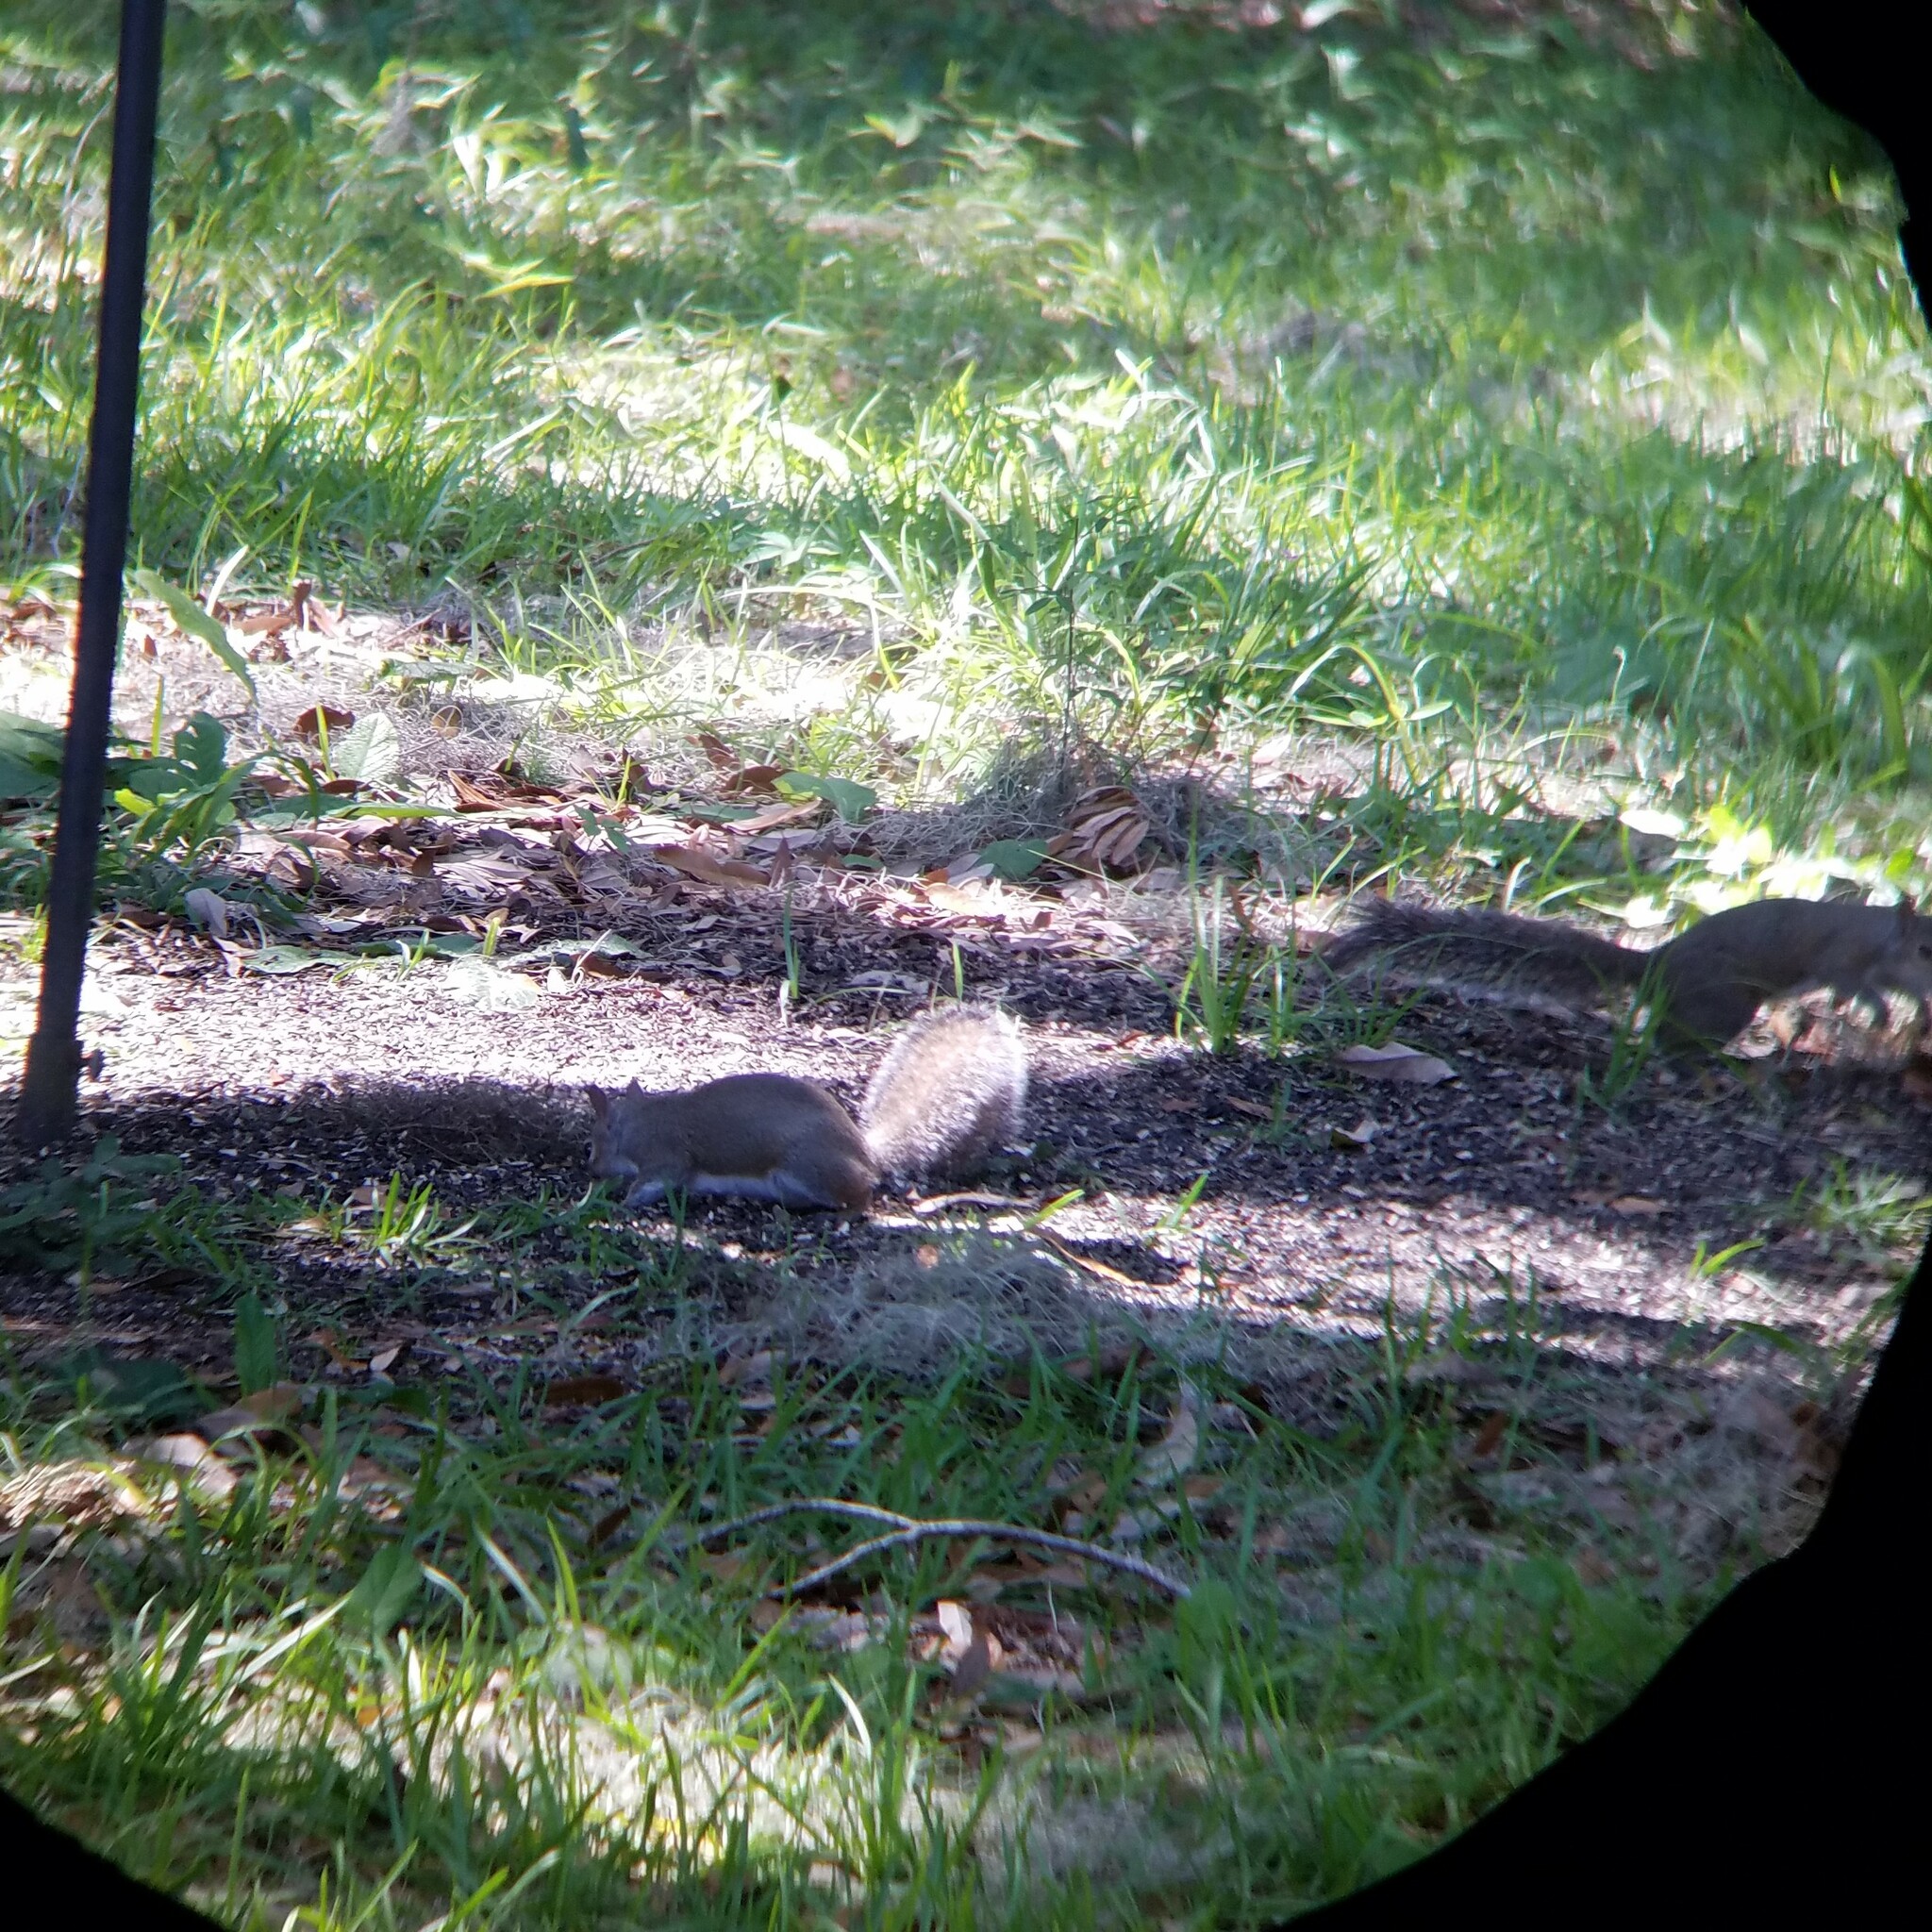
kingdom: Animalia
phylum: Chordata
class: Mammalia
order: Rodentia
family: Sciuridae
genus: Sciurus
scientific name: Sciurus carolinensis
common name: Eastern gray squirrel
